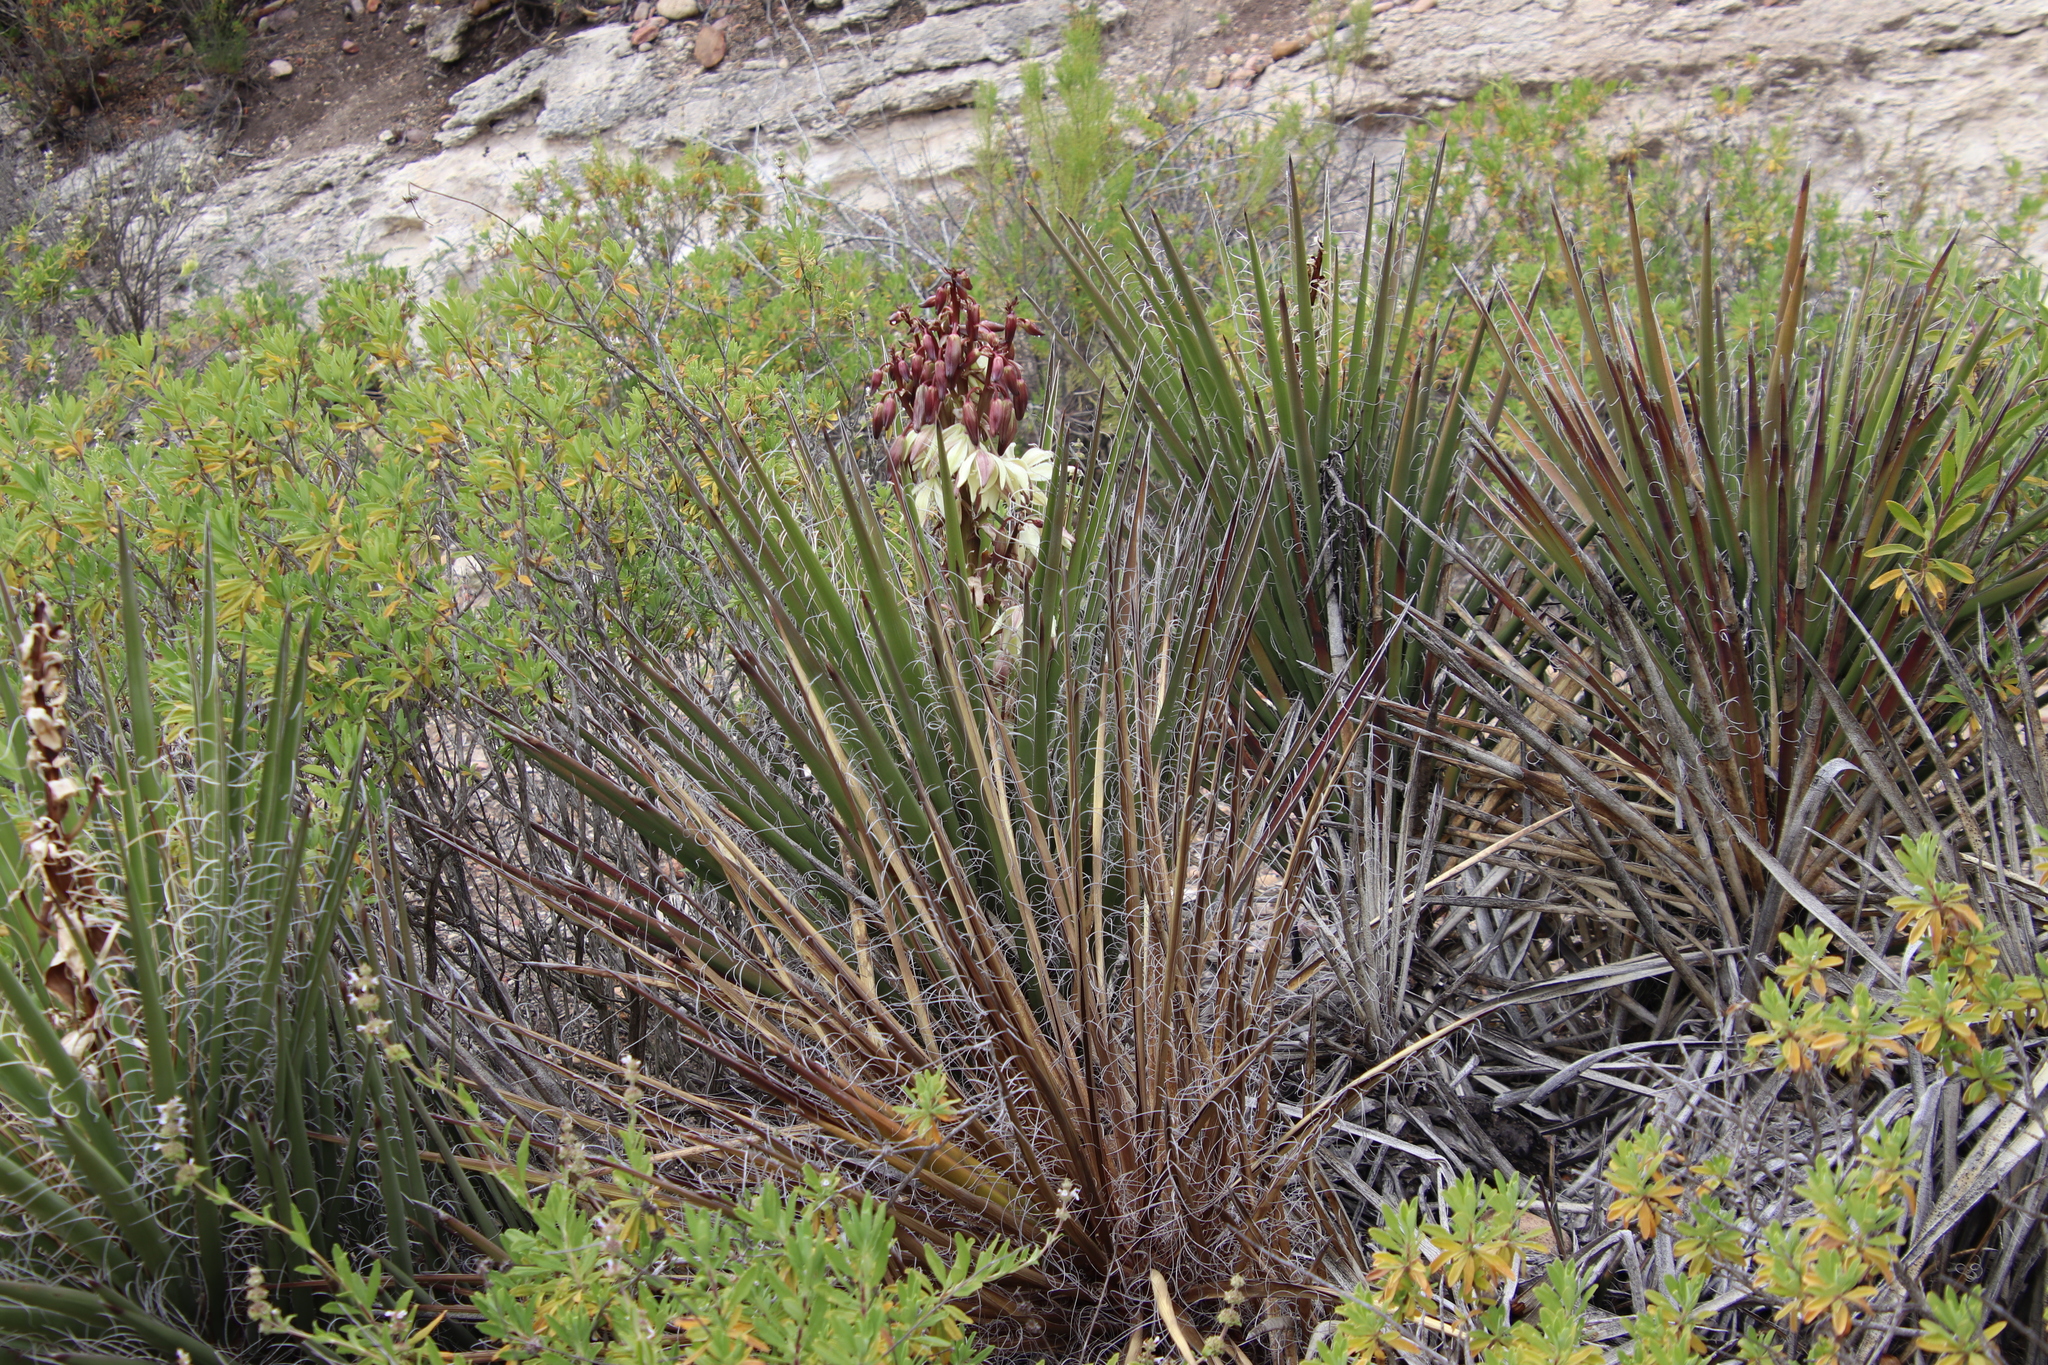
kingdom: Plantae
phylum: Tracheophyta
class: Liliopsida
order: Asparagales
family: Asparagaceae
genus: Yucca
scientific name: Yucca schidigera
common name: Mojave yucca
